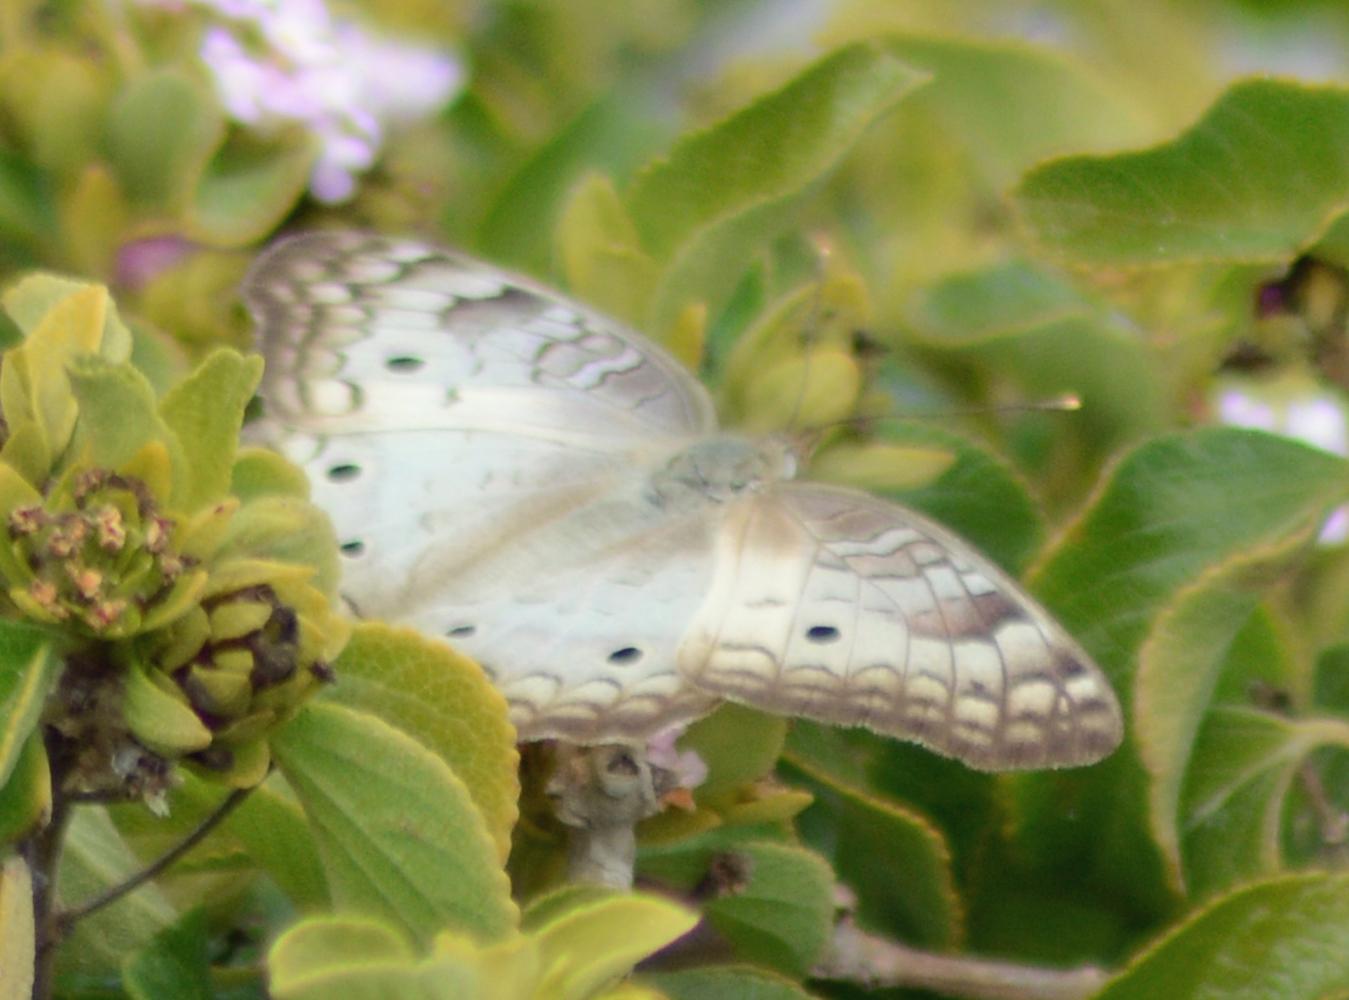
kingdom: Animalia
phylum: Arthropoda
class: Insecta
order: Lepidoptera
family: Nymphalidae
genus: Anartia
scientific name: Anartia jatrophae
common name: White peacock
